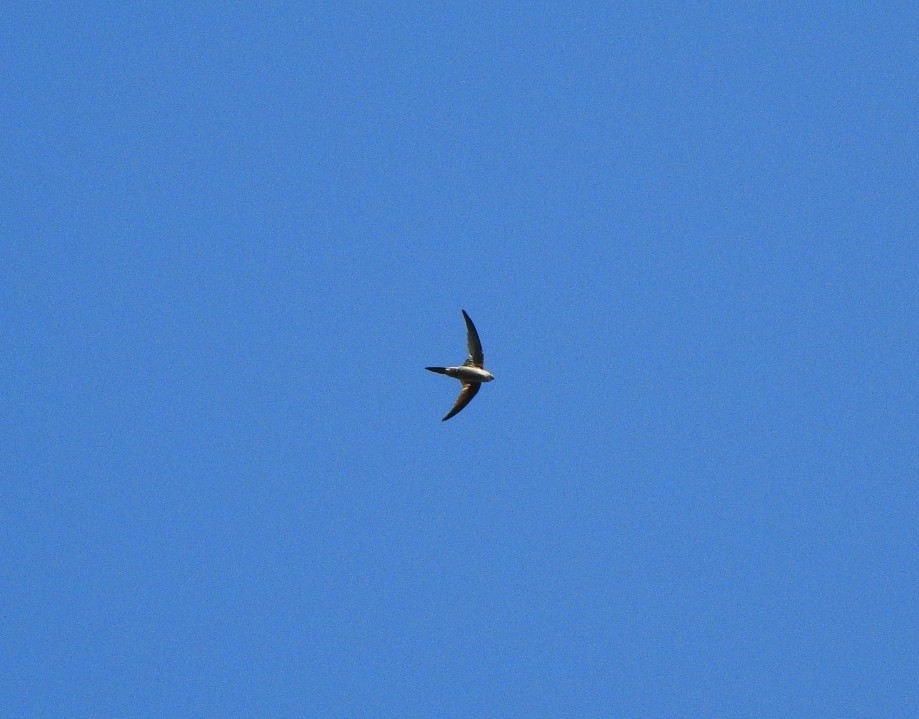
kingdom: Animalia
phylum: Chordata
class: Aves
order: Apodiformes
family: Apodidae
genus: Cypsiurus
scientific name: Cypsiurus balasiensis
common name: Asian palm swift
